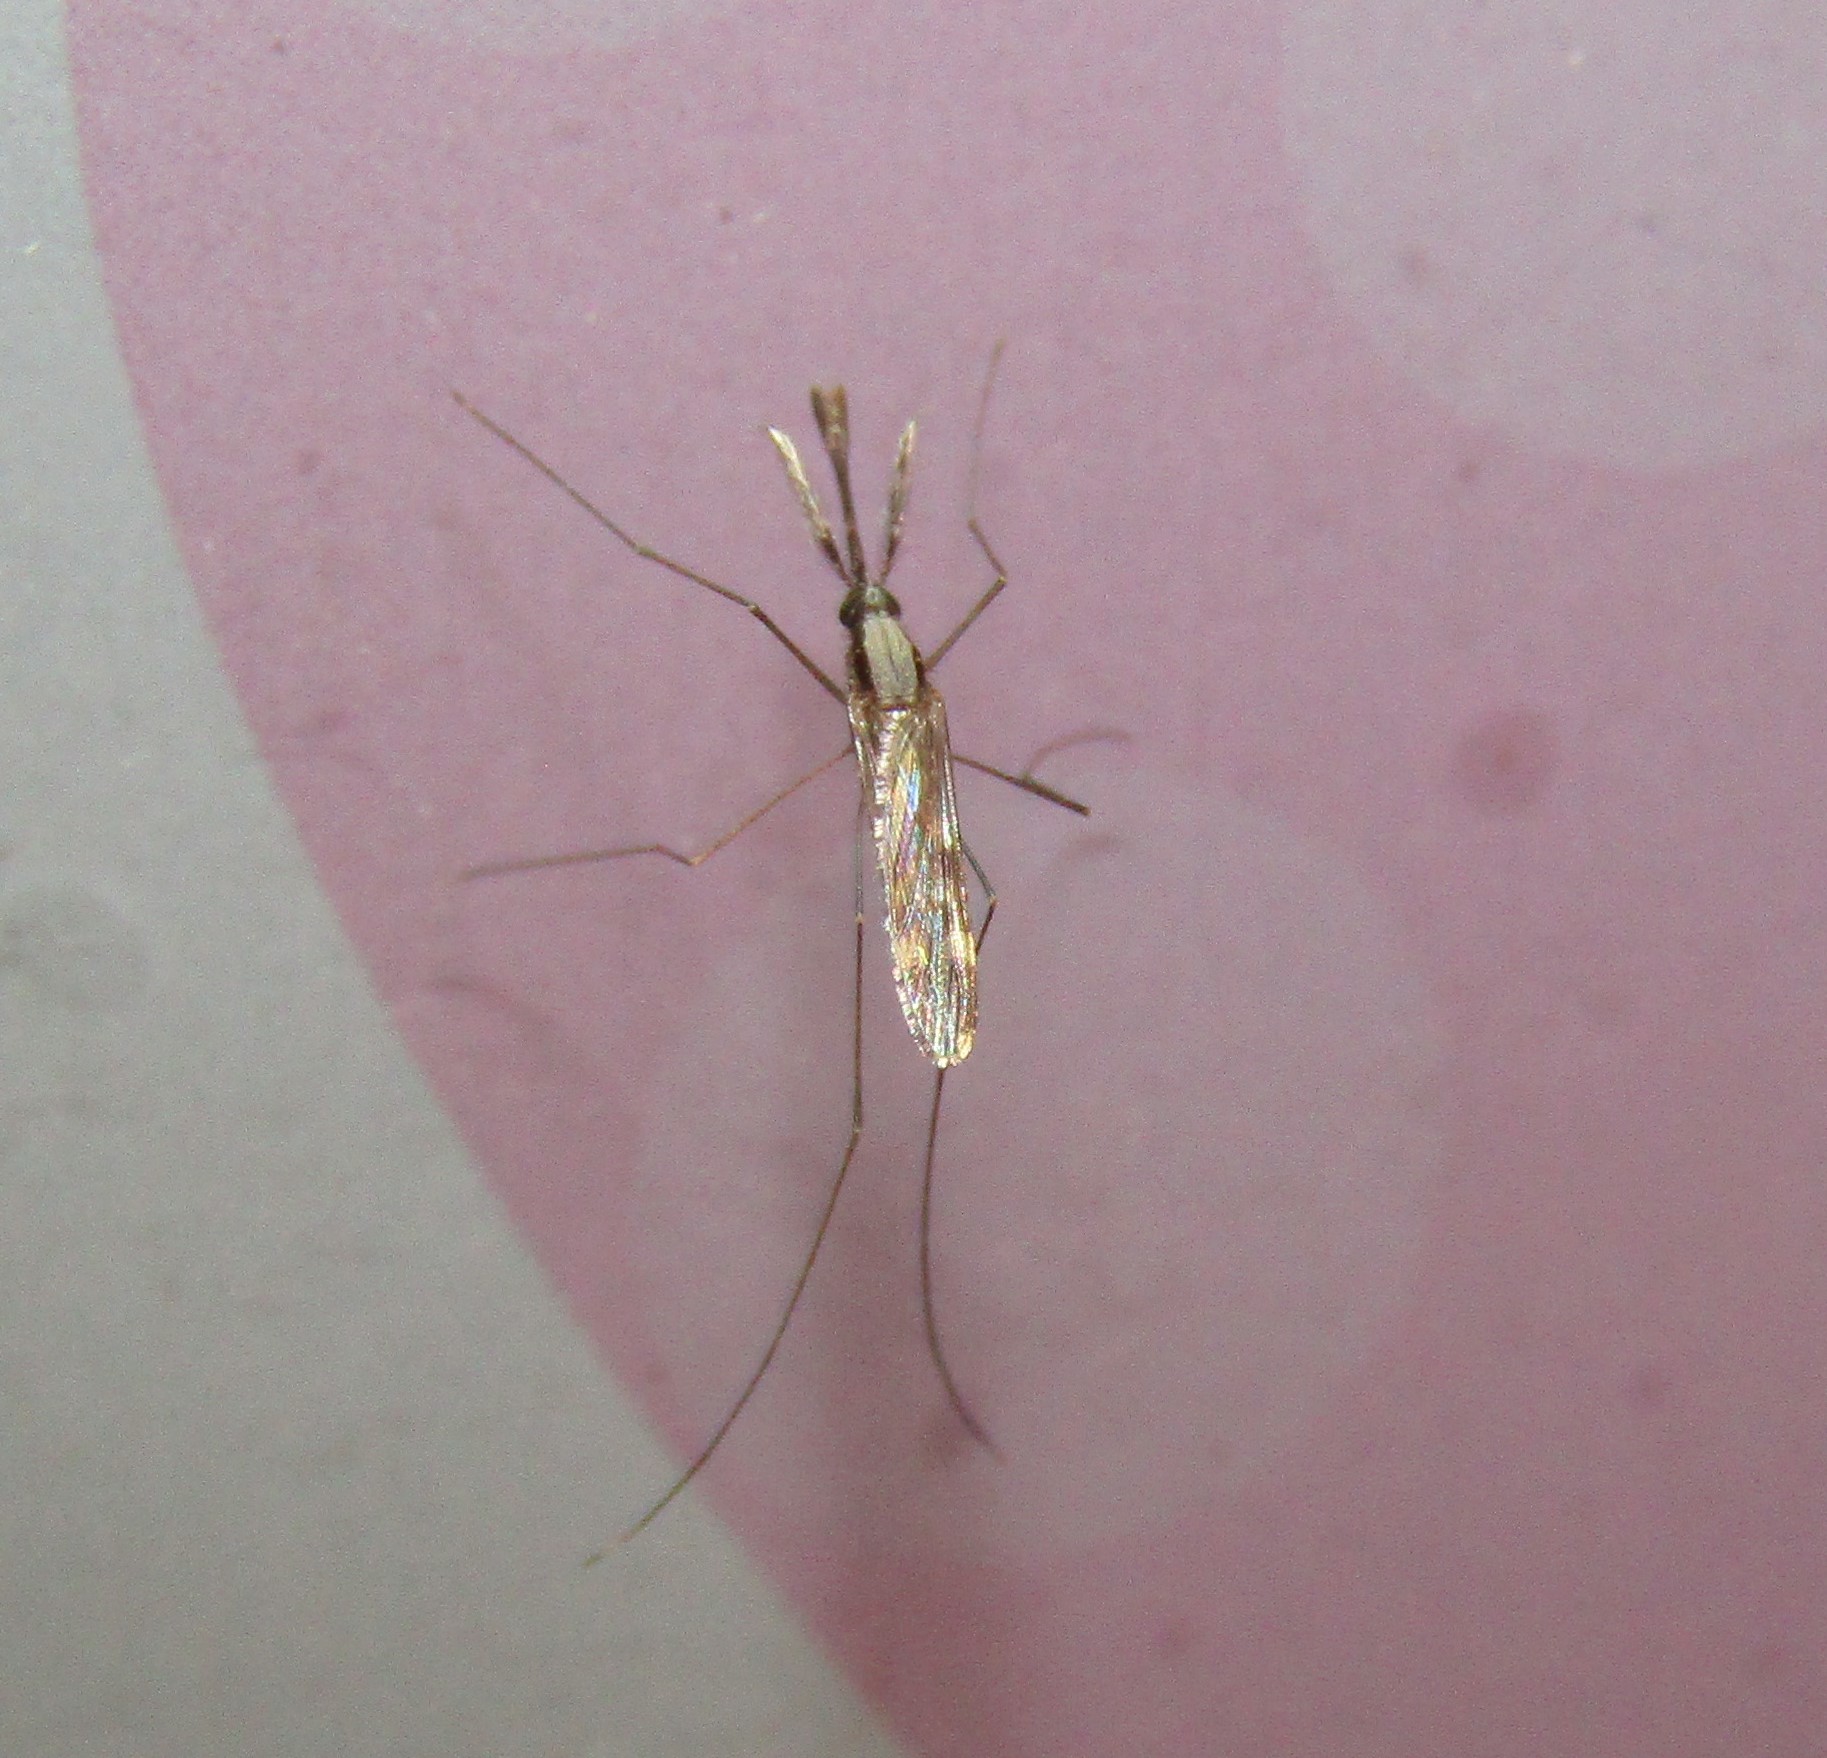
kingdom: Animalia
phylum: Arthropoda
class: Insecta
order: Diptera
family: Culicidae
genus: Anopheles
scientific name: Anopheles punctipennis
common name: Woodland malaria mosquito
